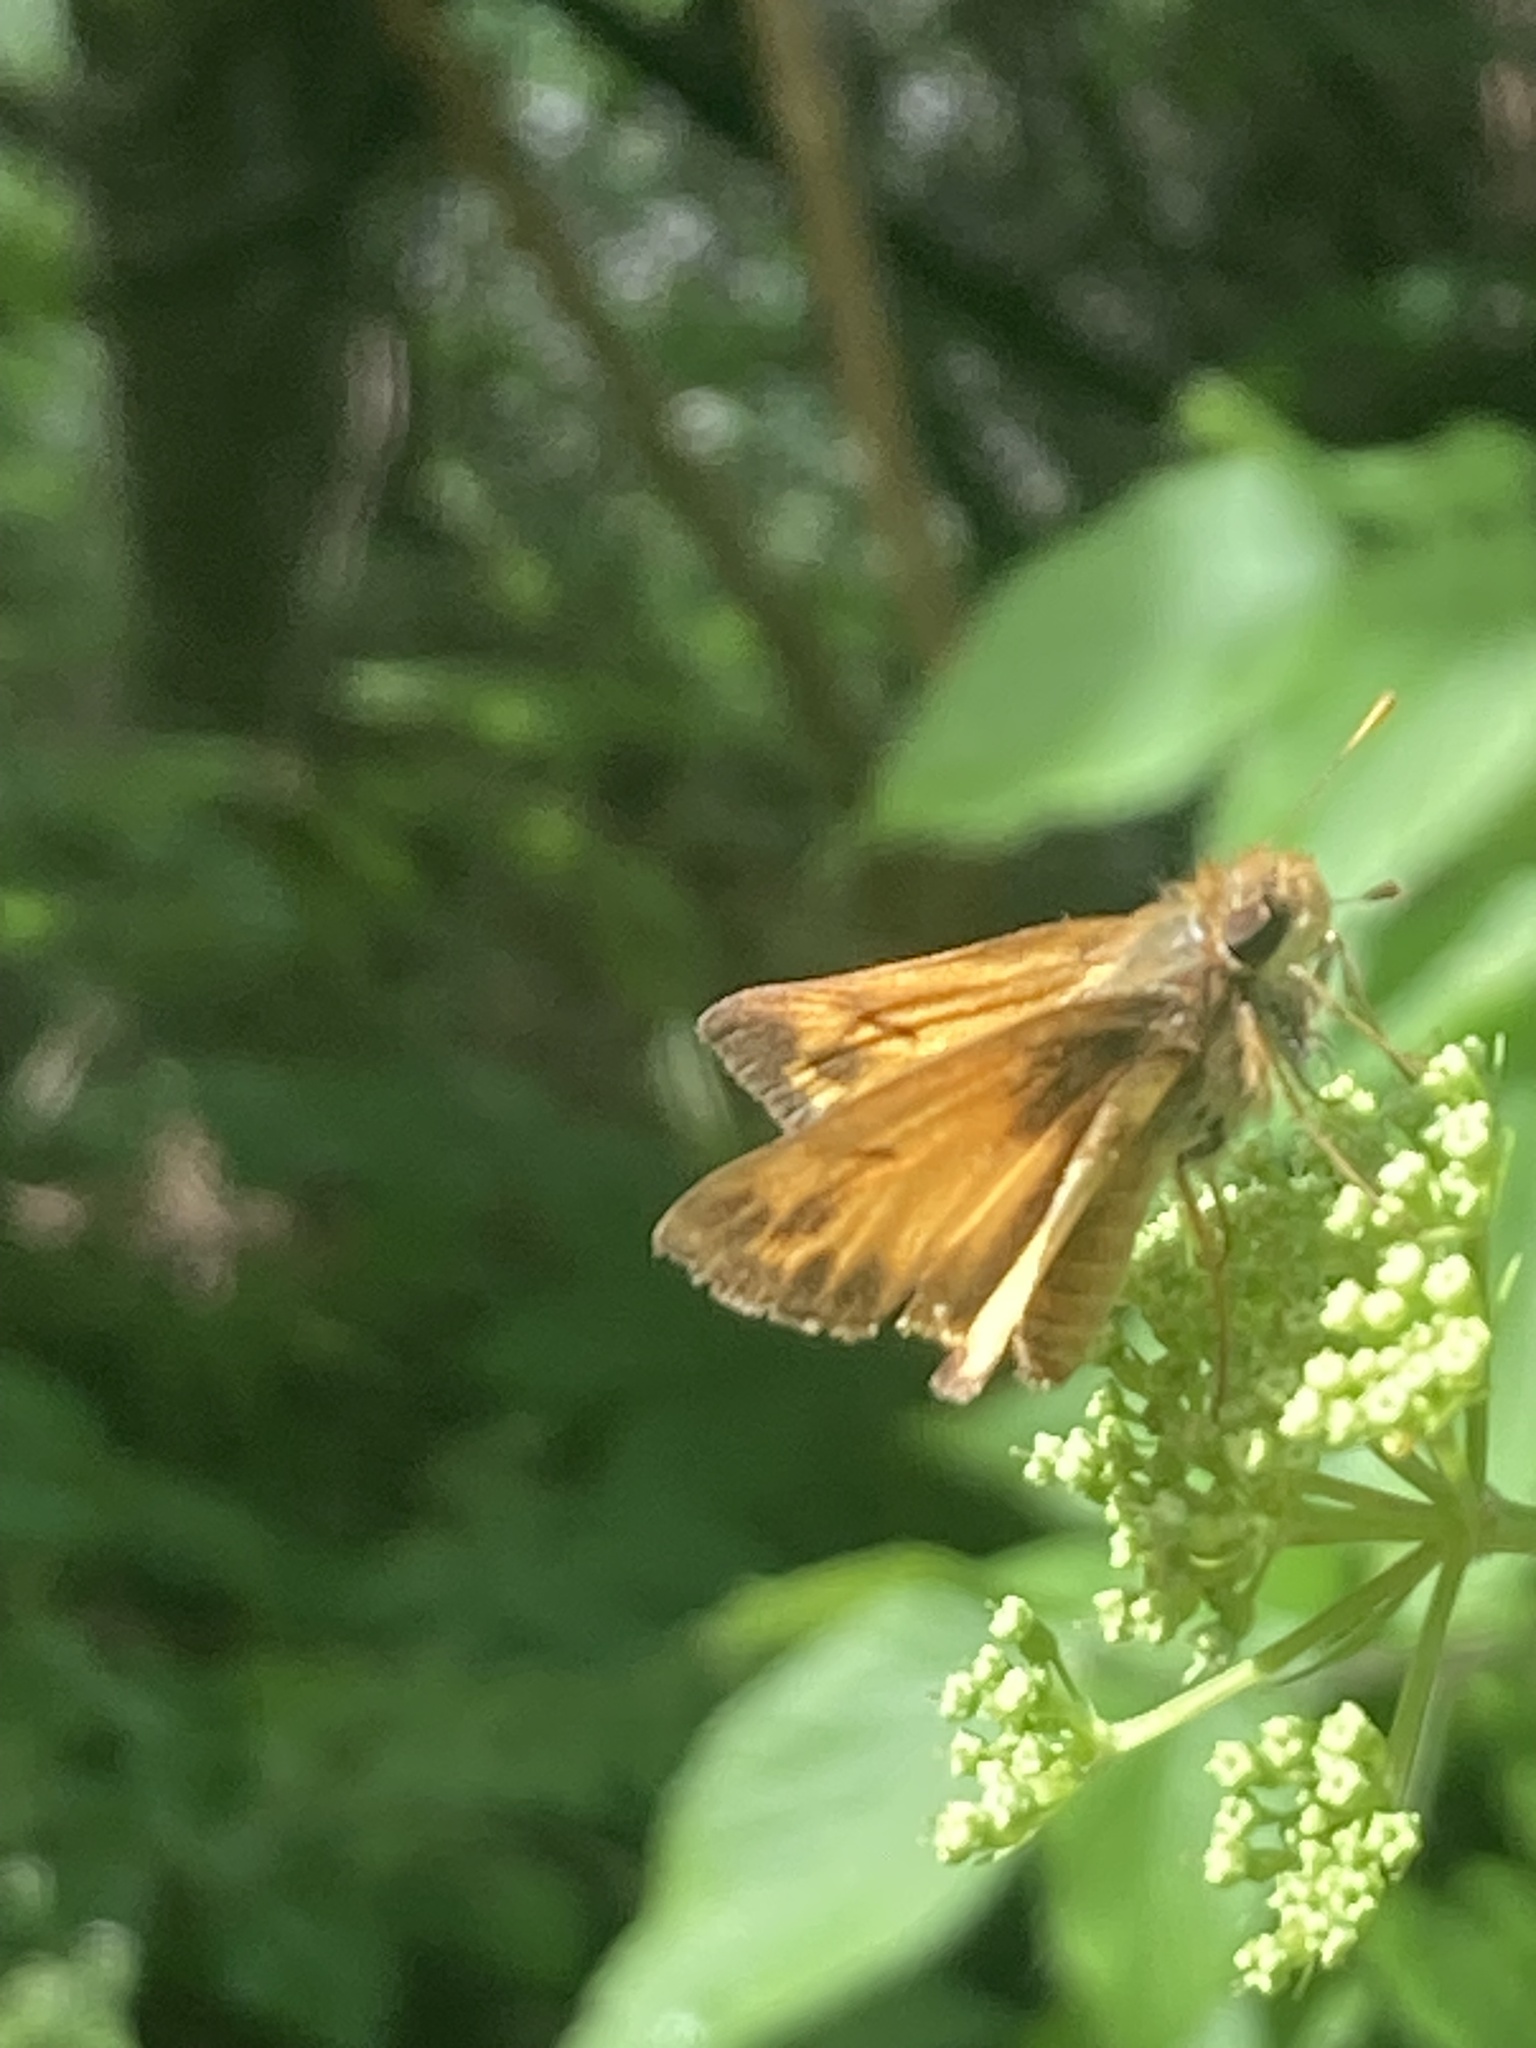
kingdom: Animalia
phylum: Arthropoda
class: Insecta
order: Lepidoptera
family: Hesperiidae
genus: Lon
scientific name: Lon zabulon
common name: Zabulon skipper
